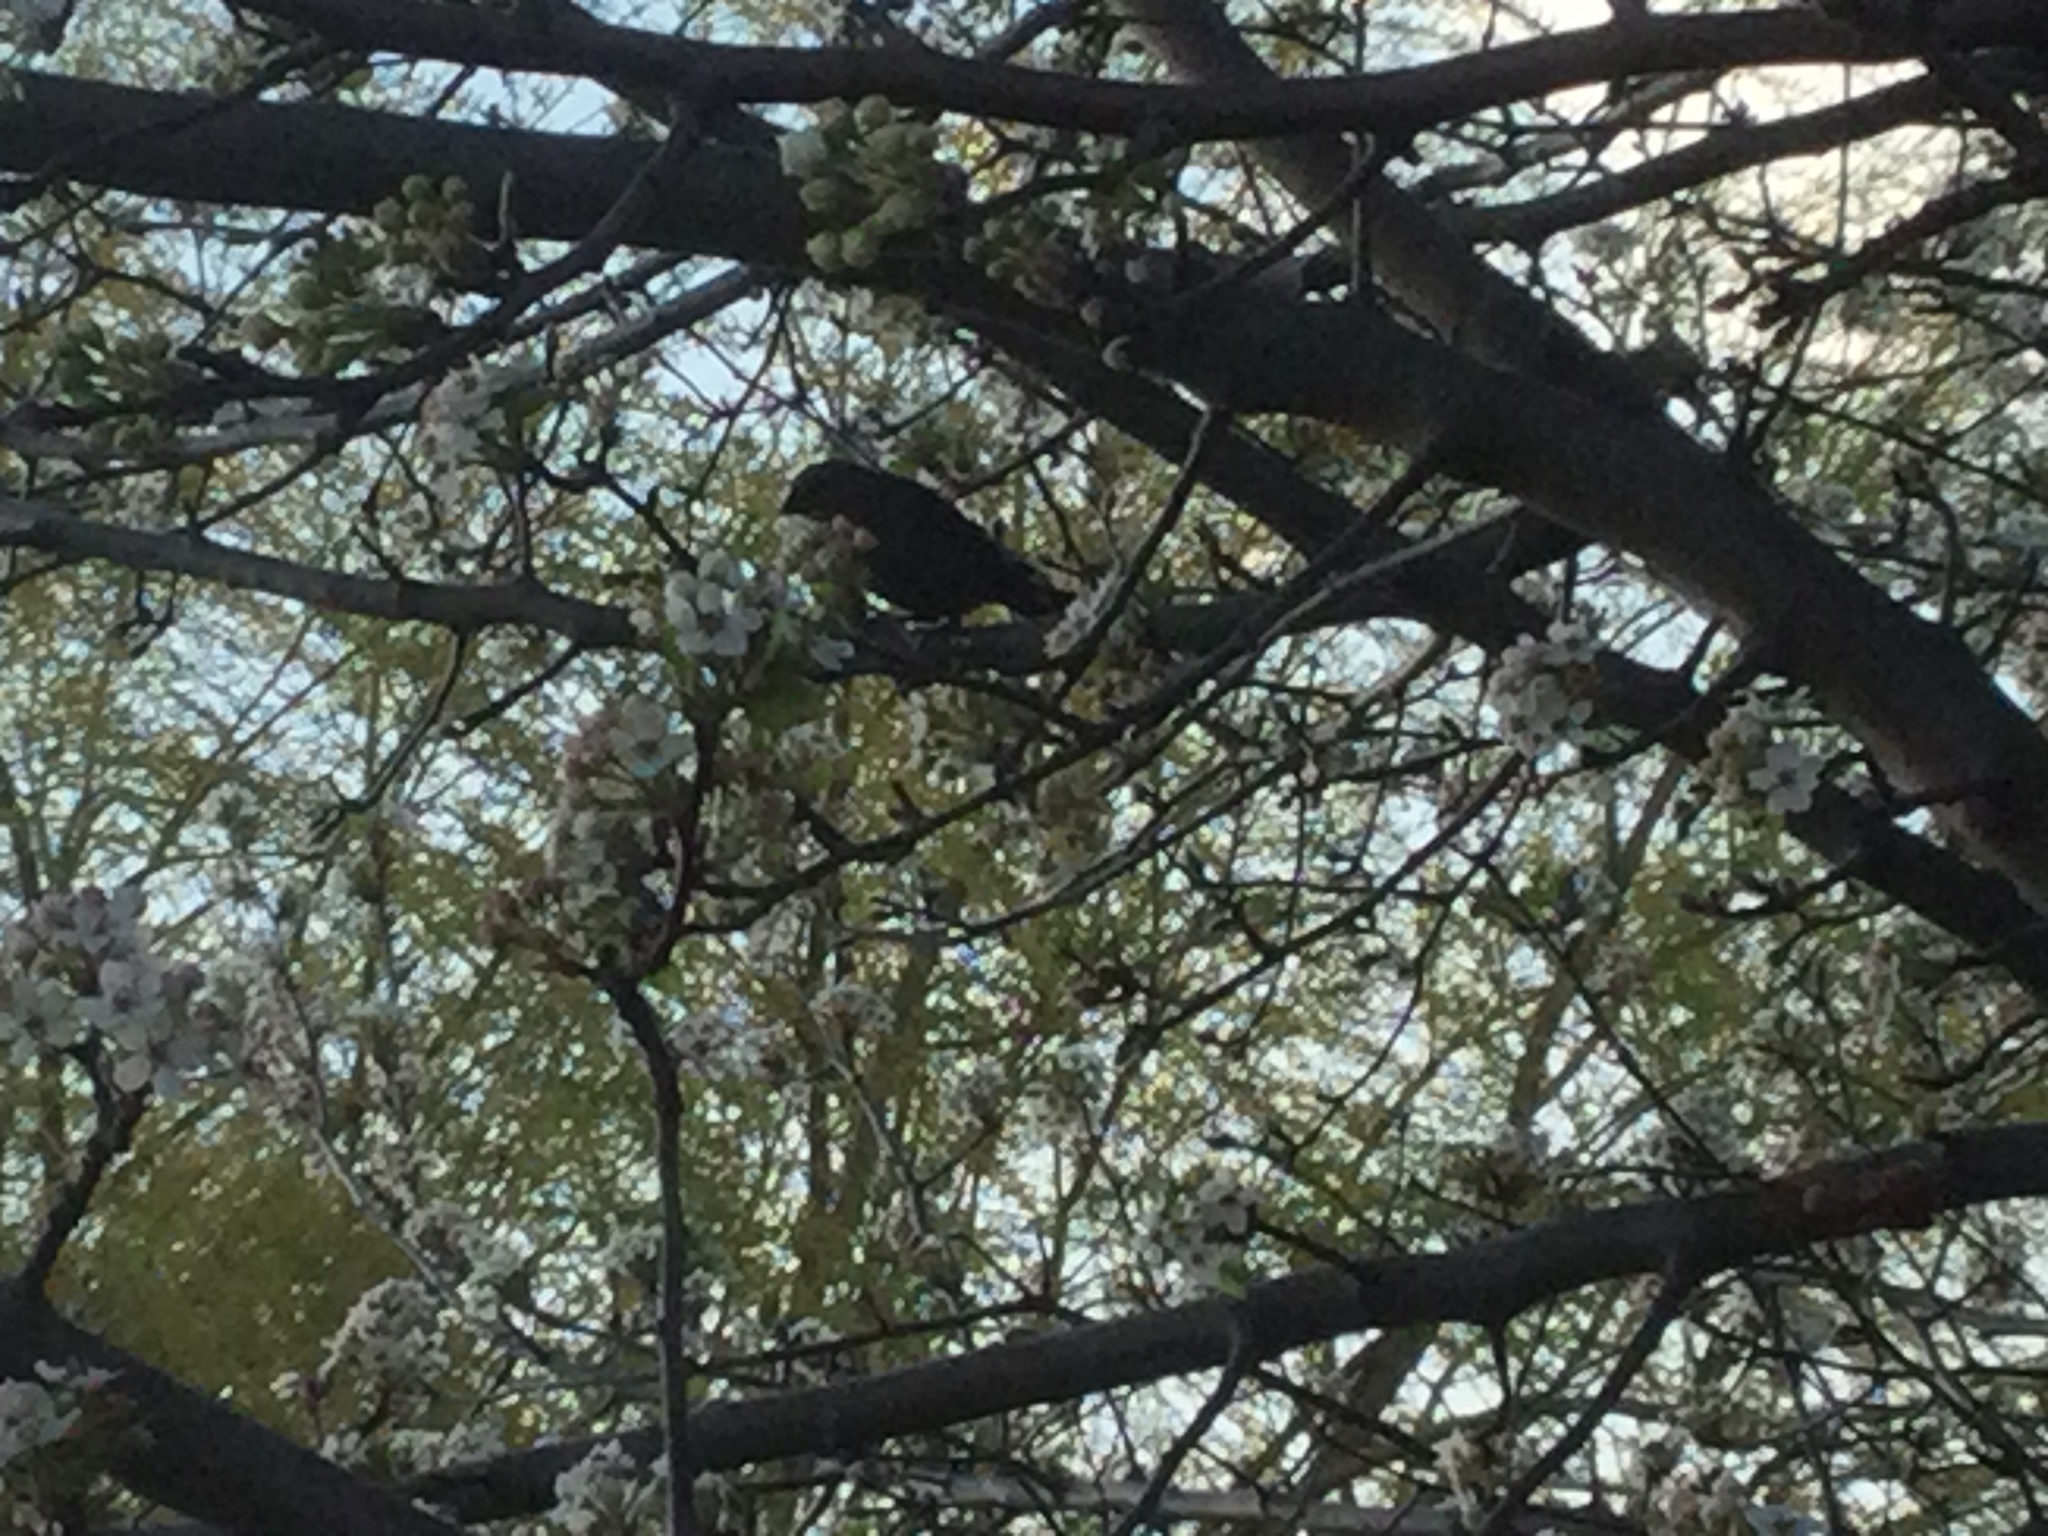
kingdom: Animalia
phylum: Chordata
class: Aves
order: Passeriformes
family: Icteridae
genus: Molothrus
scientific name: Molothrus ater
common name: Brown-headed cowbird
